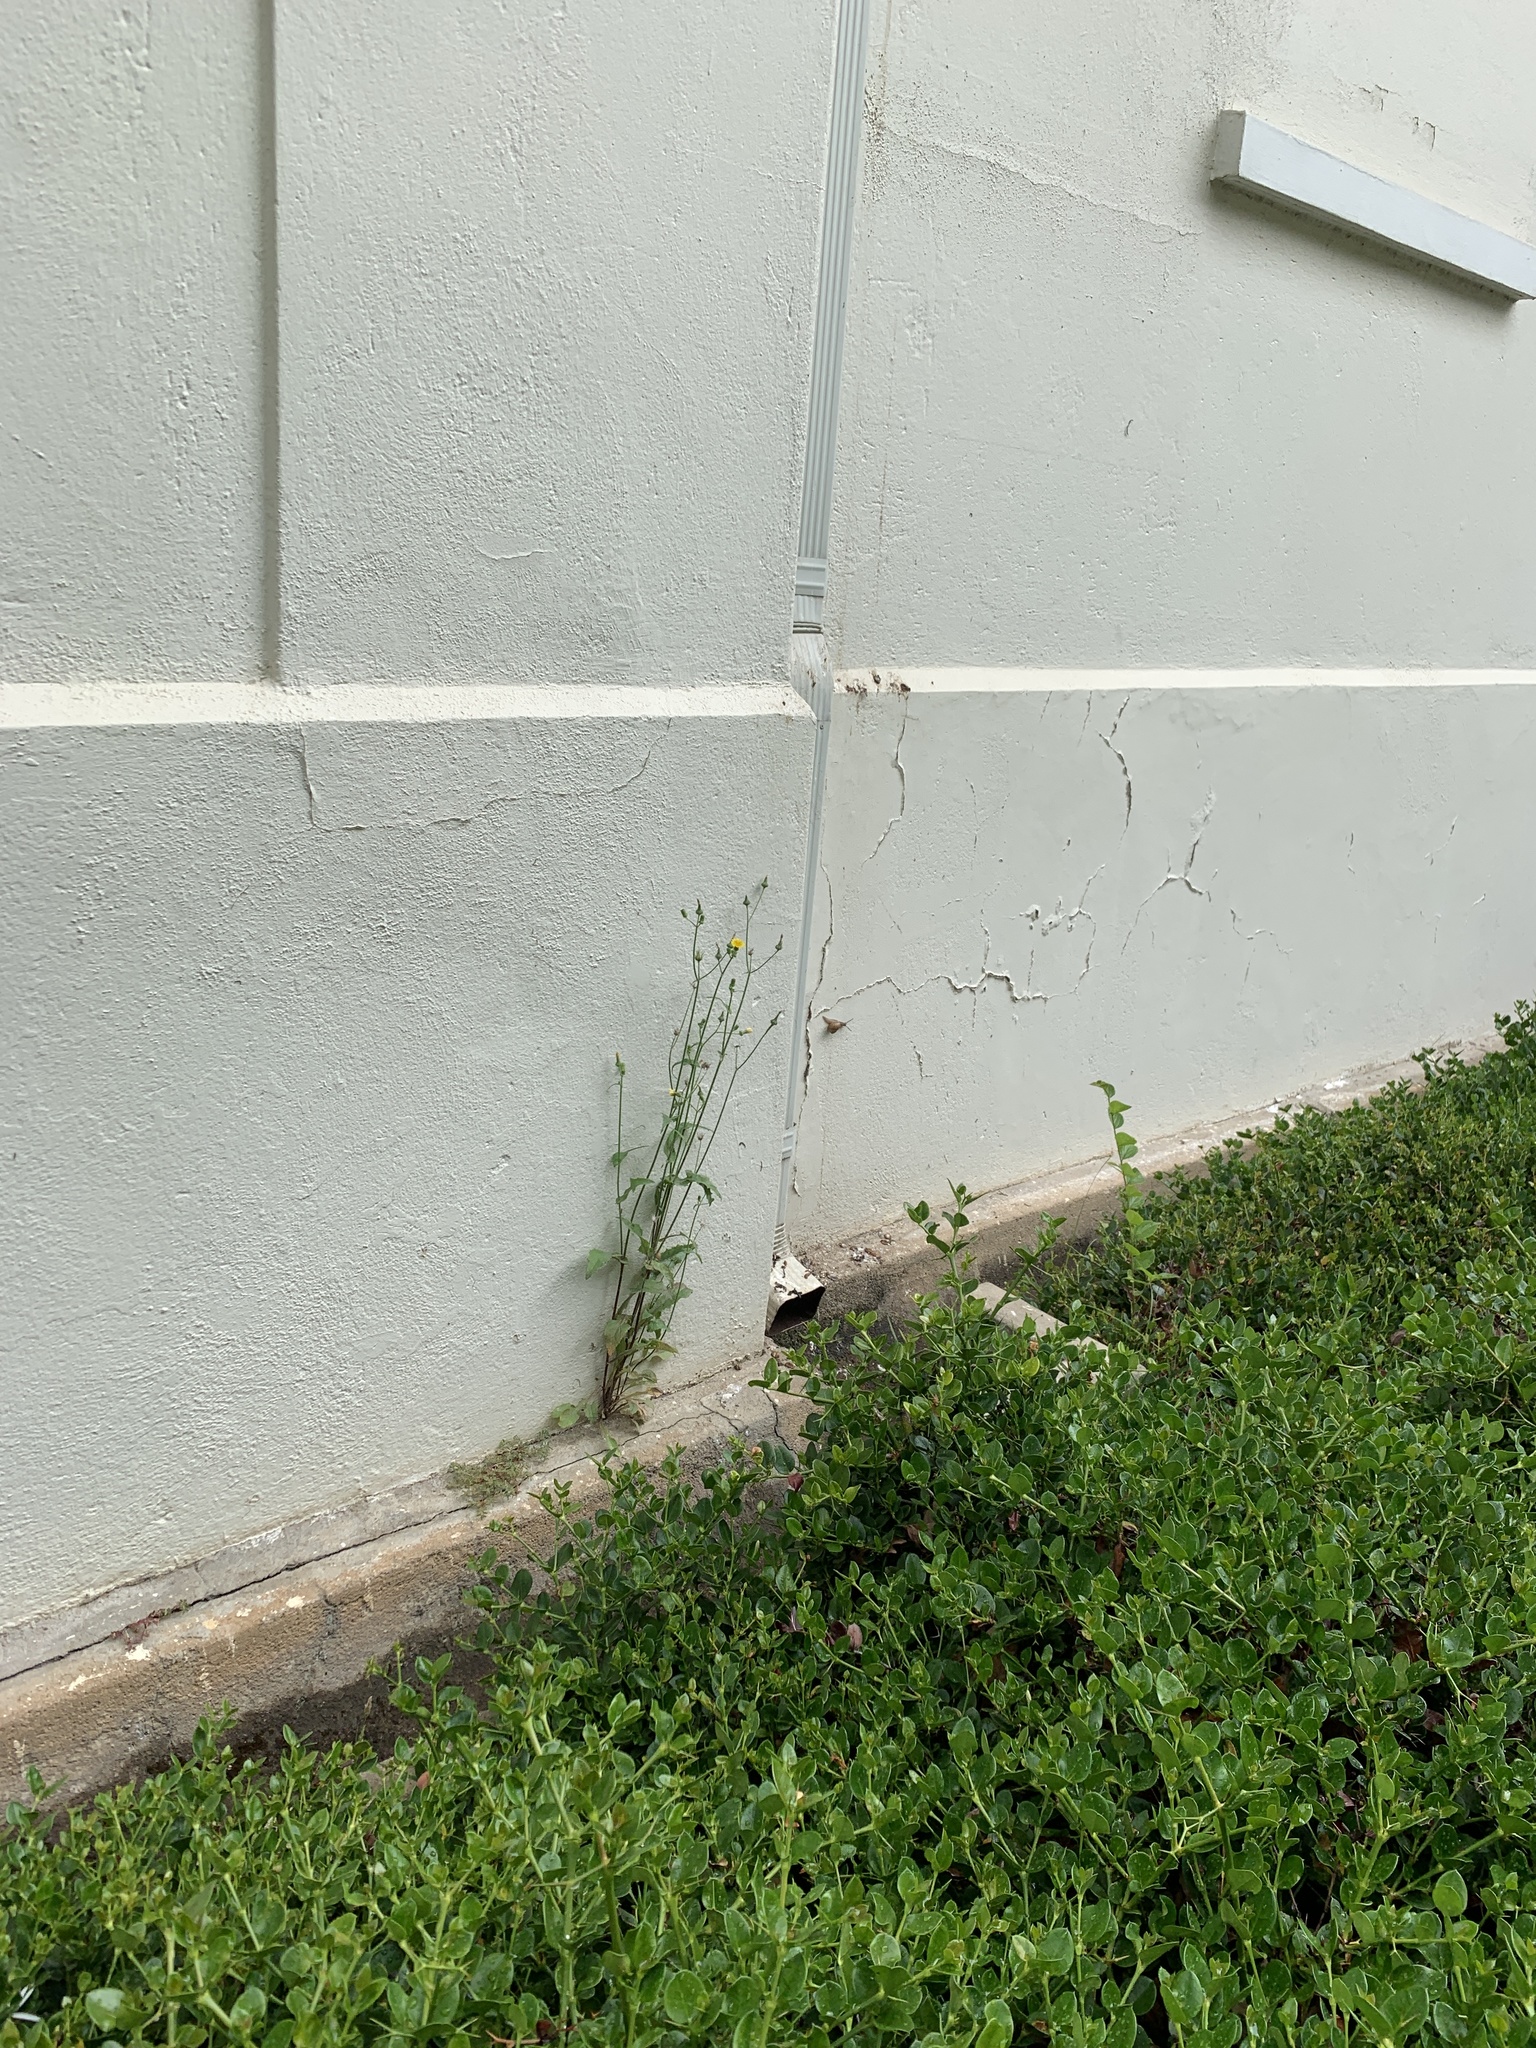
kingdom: Plantae
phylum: Tracheophyta
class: Magnoliopsida
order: Asterales
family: Asteraceae
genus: Sonchus
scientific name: Sonchus oleraceus
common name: Common sowthistle
